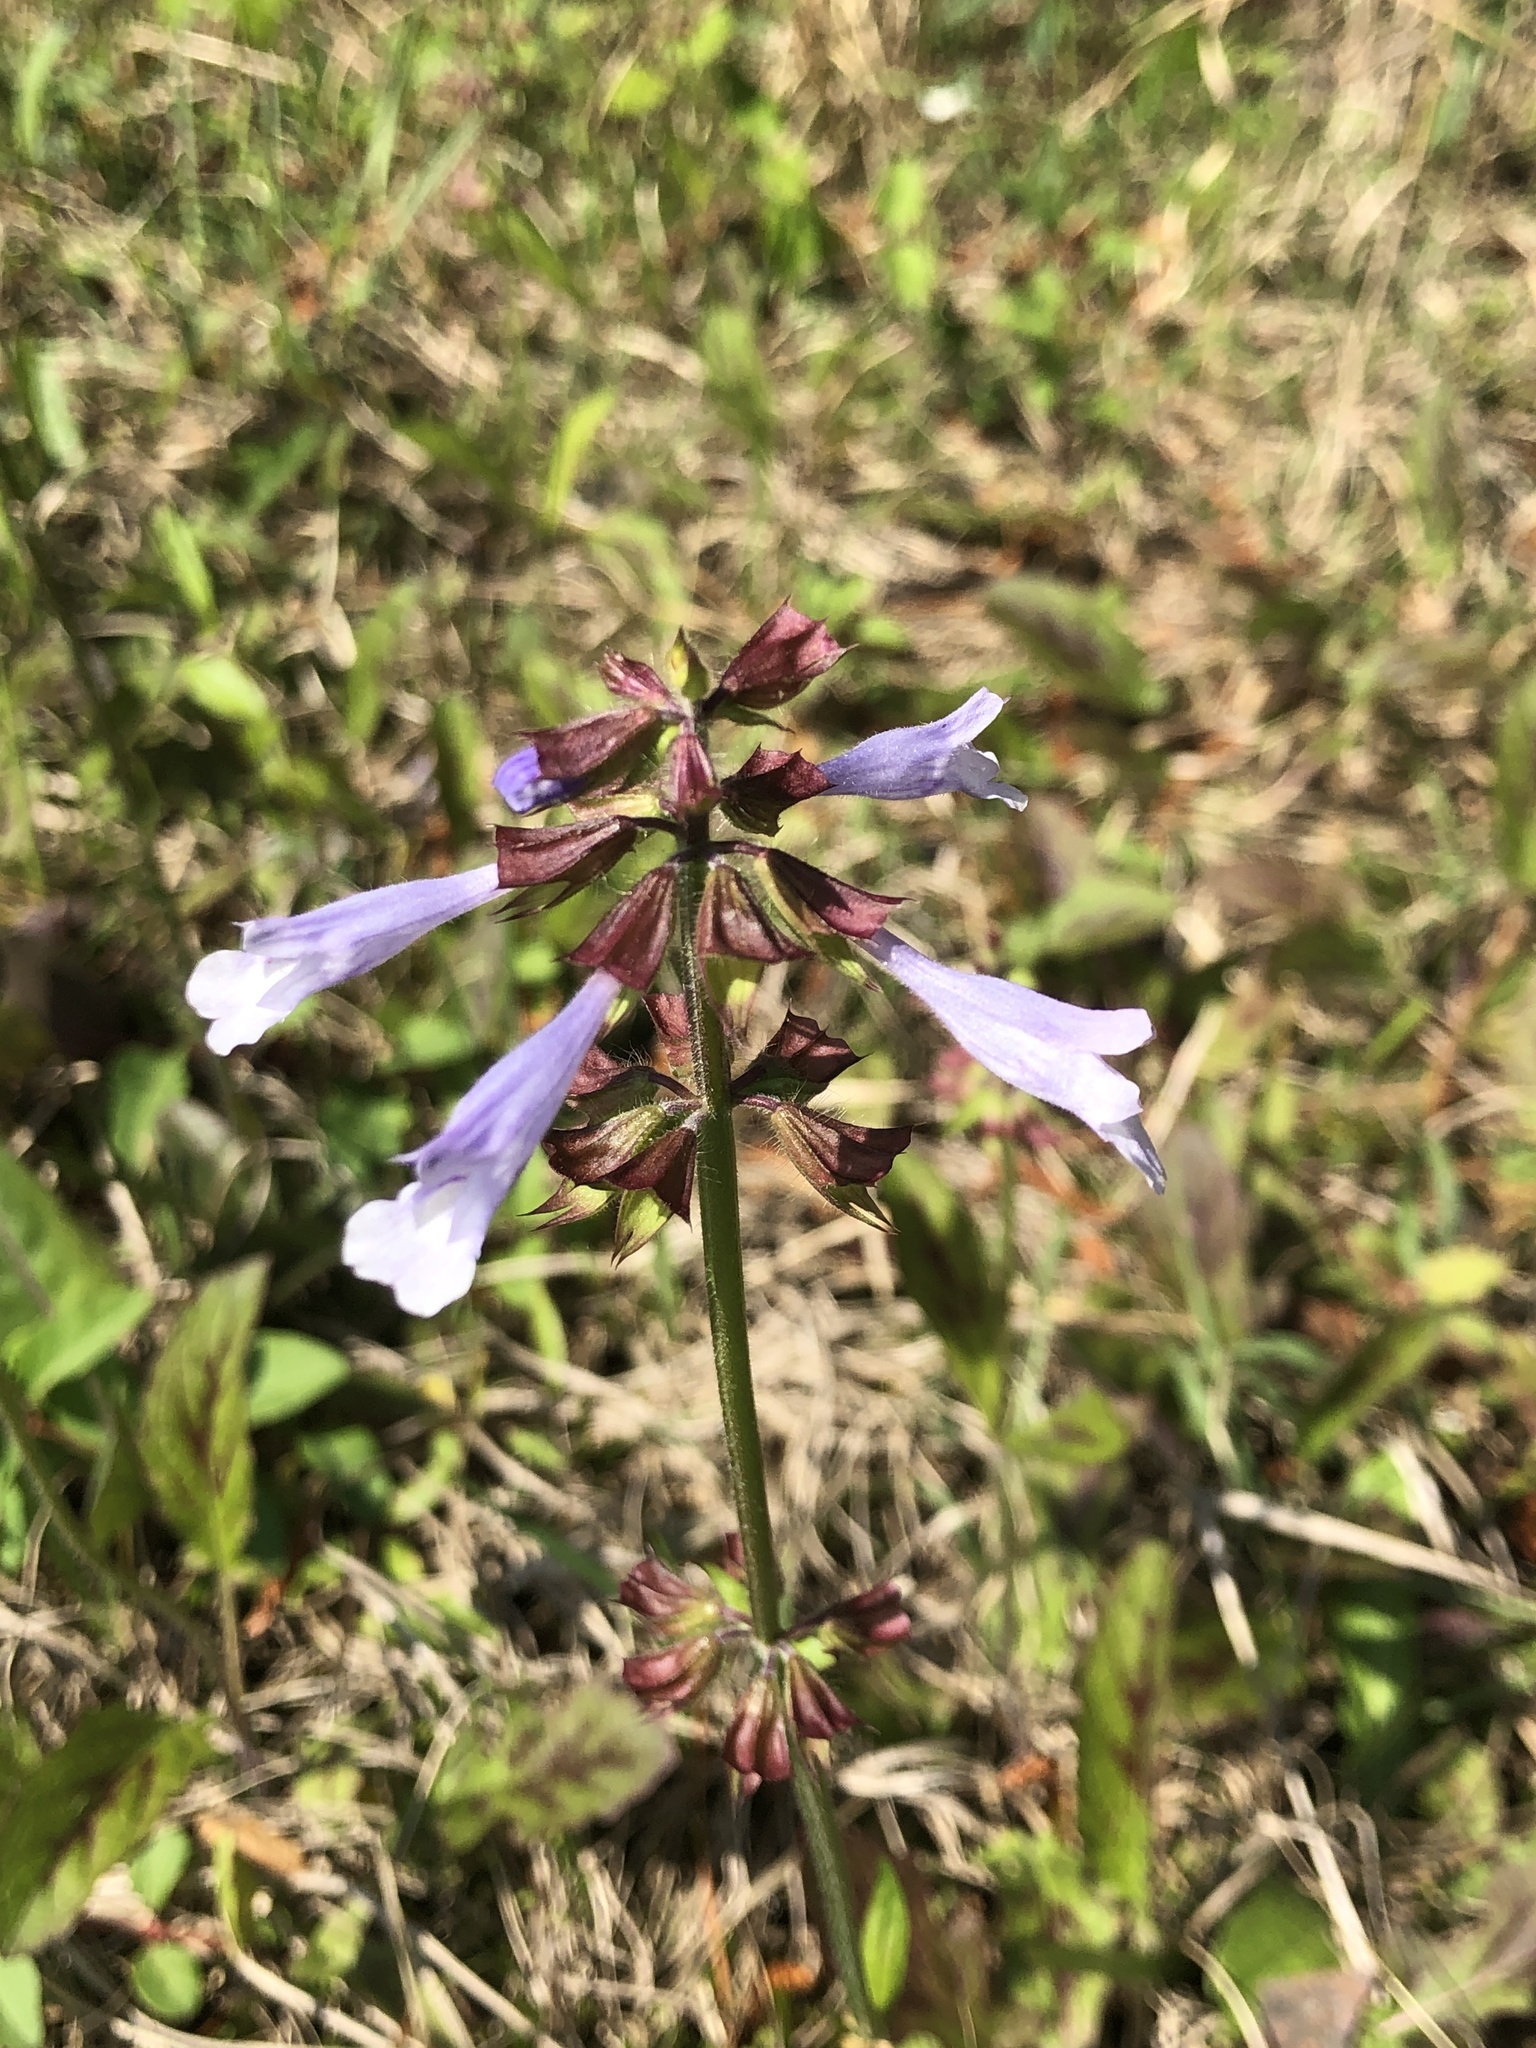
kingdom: Plantae
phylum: Tracheophyta
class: Magnoliopsida
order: Lamiales
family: Lamiaceae
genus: Salvia
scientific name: Salvia lyrata
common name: Cancerweed
